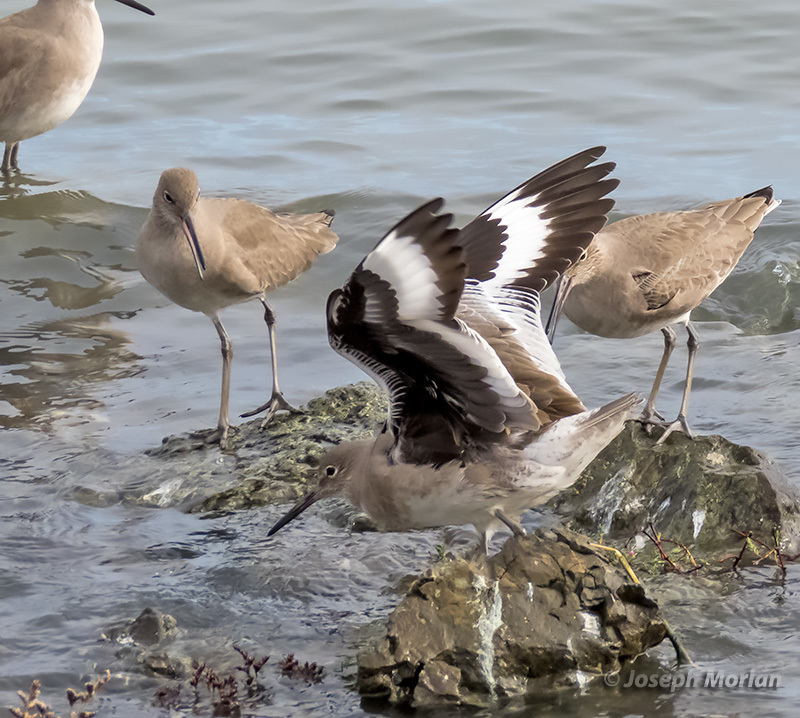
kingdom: Animalia
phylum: Chordata
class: Aves
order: Charadriiformes
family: Scolopacidae
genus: Tringa
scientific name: Tringa semipalmata
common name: Willet
